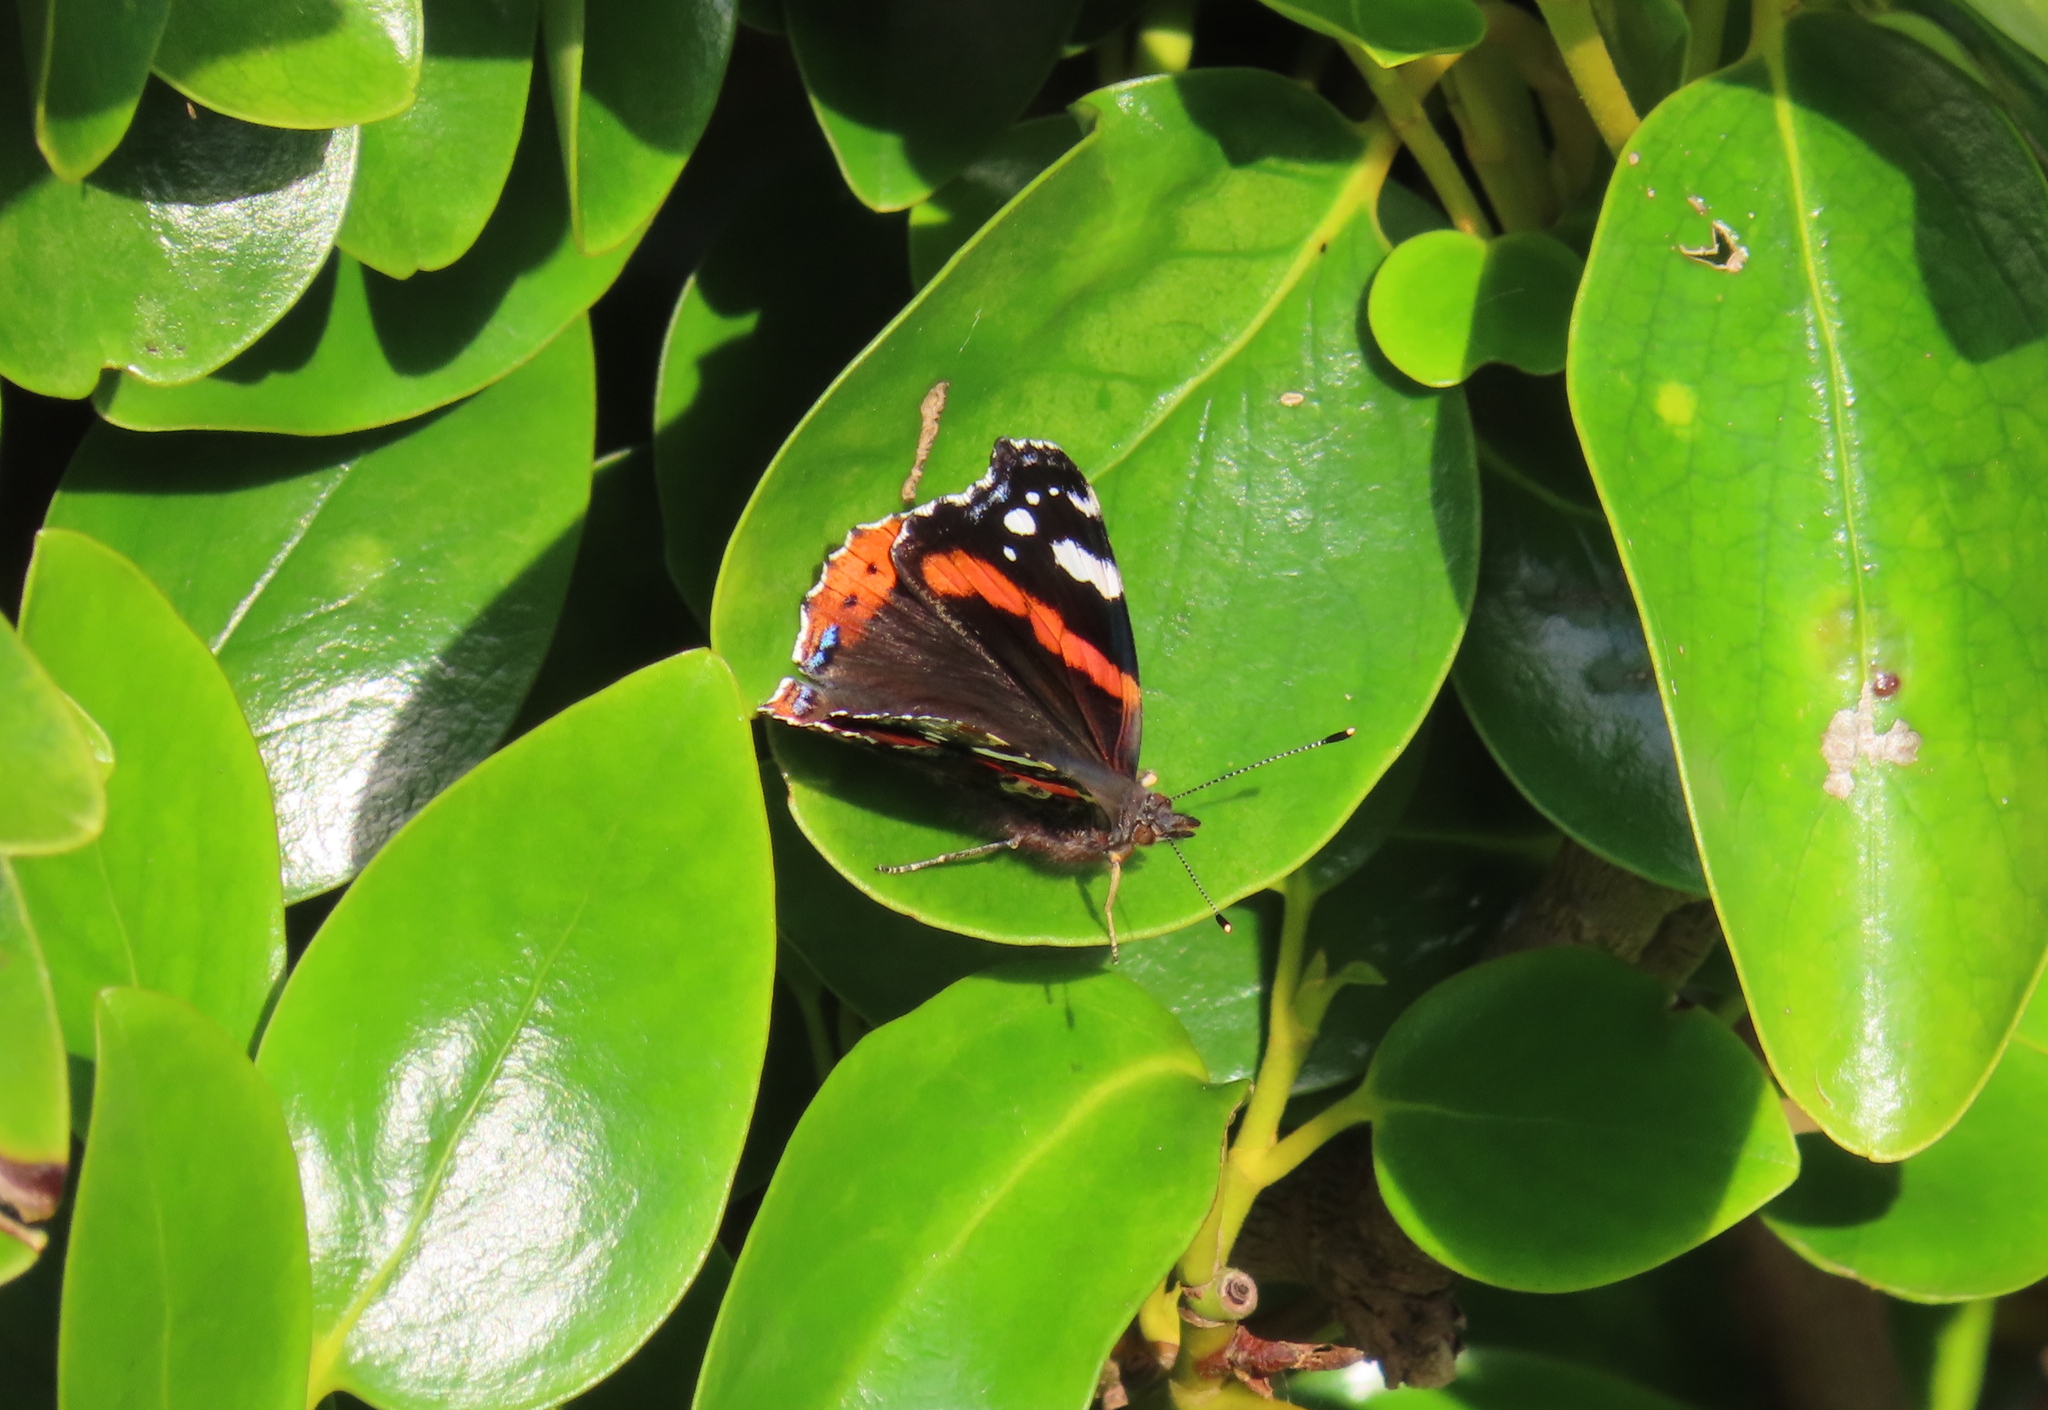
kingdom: Animalia
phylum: Arthropoda
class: Insecta
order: Lepidoptera
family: Nymphalidae
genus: Vanessa
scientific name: Vanessa atalanta
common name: Red admiral
